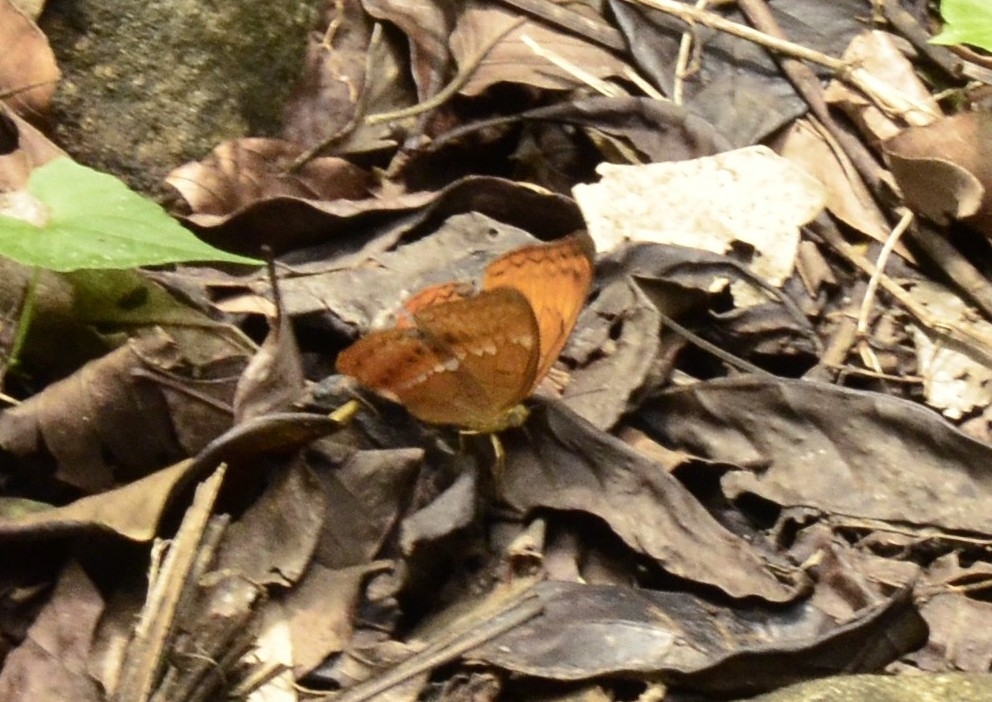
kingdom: Animalia
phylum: Arthropoda
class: Insecta
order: Lepidoptera
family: Nymphalidae
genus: Cirrochroa
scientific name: Cirrochroa thais
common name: Tamil yeoman
